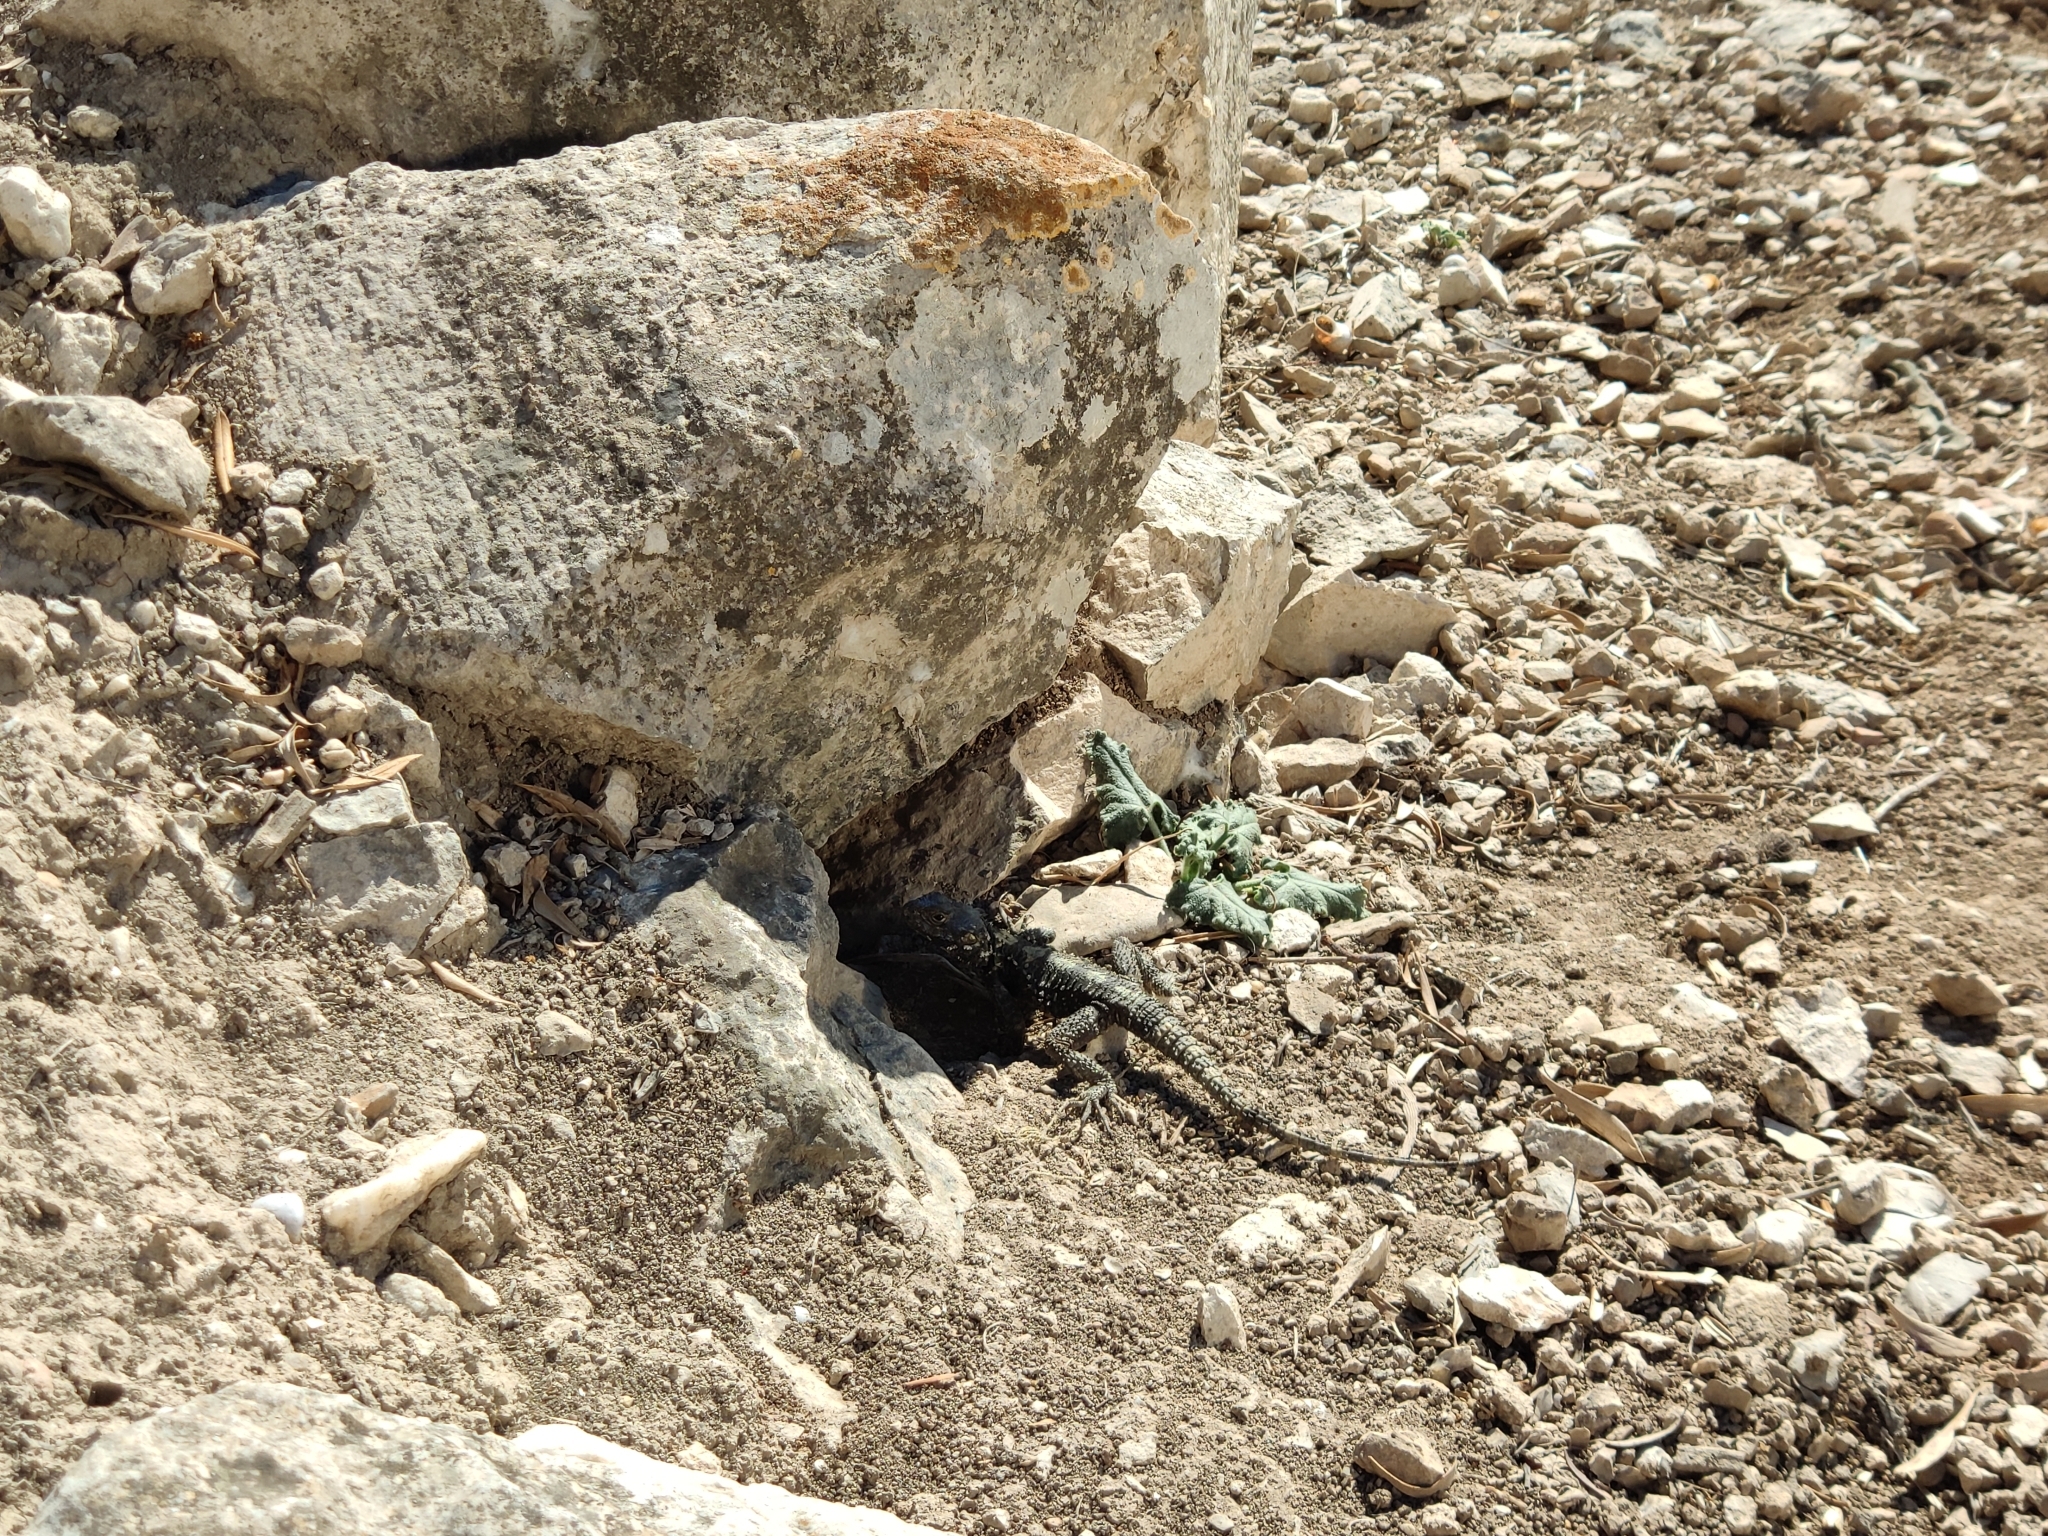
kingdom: Animalia
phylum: Chordata
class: Squamata
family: Agamidae
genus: Stellagama
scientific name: Stellagama stellio
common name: Starred agama
